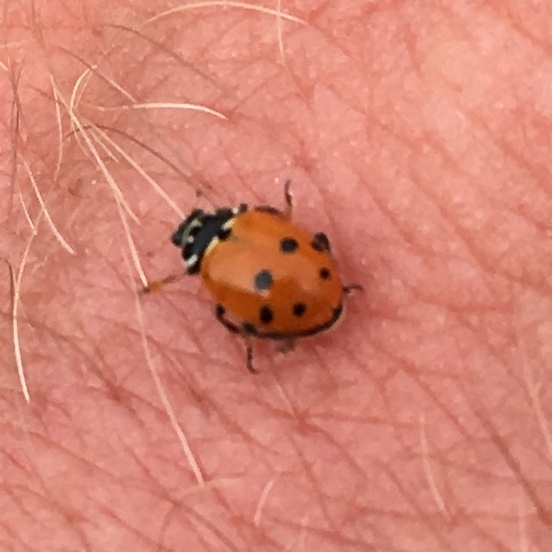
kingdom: Animalia
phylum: Arthropoda
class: Insecta
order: Coleoptera
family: Coccinellidae
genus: Hippodamia
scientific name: Hippodamia variegata
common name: Ladybird beetle
